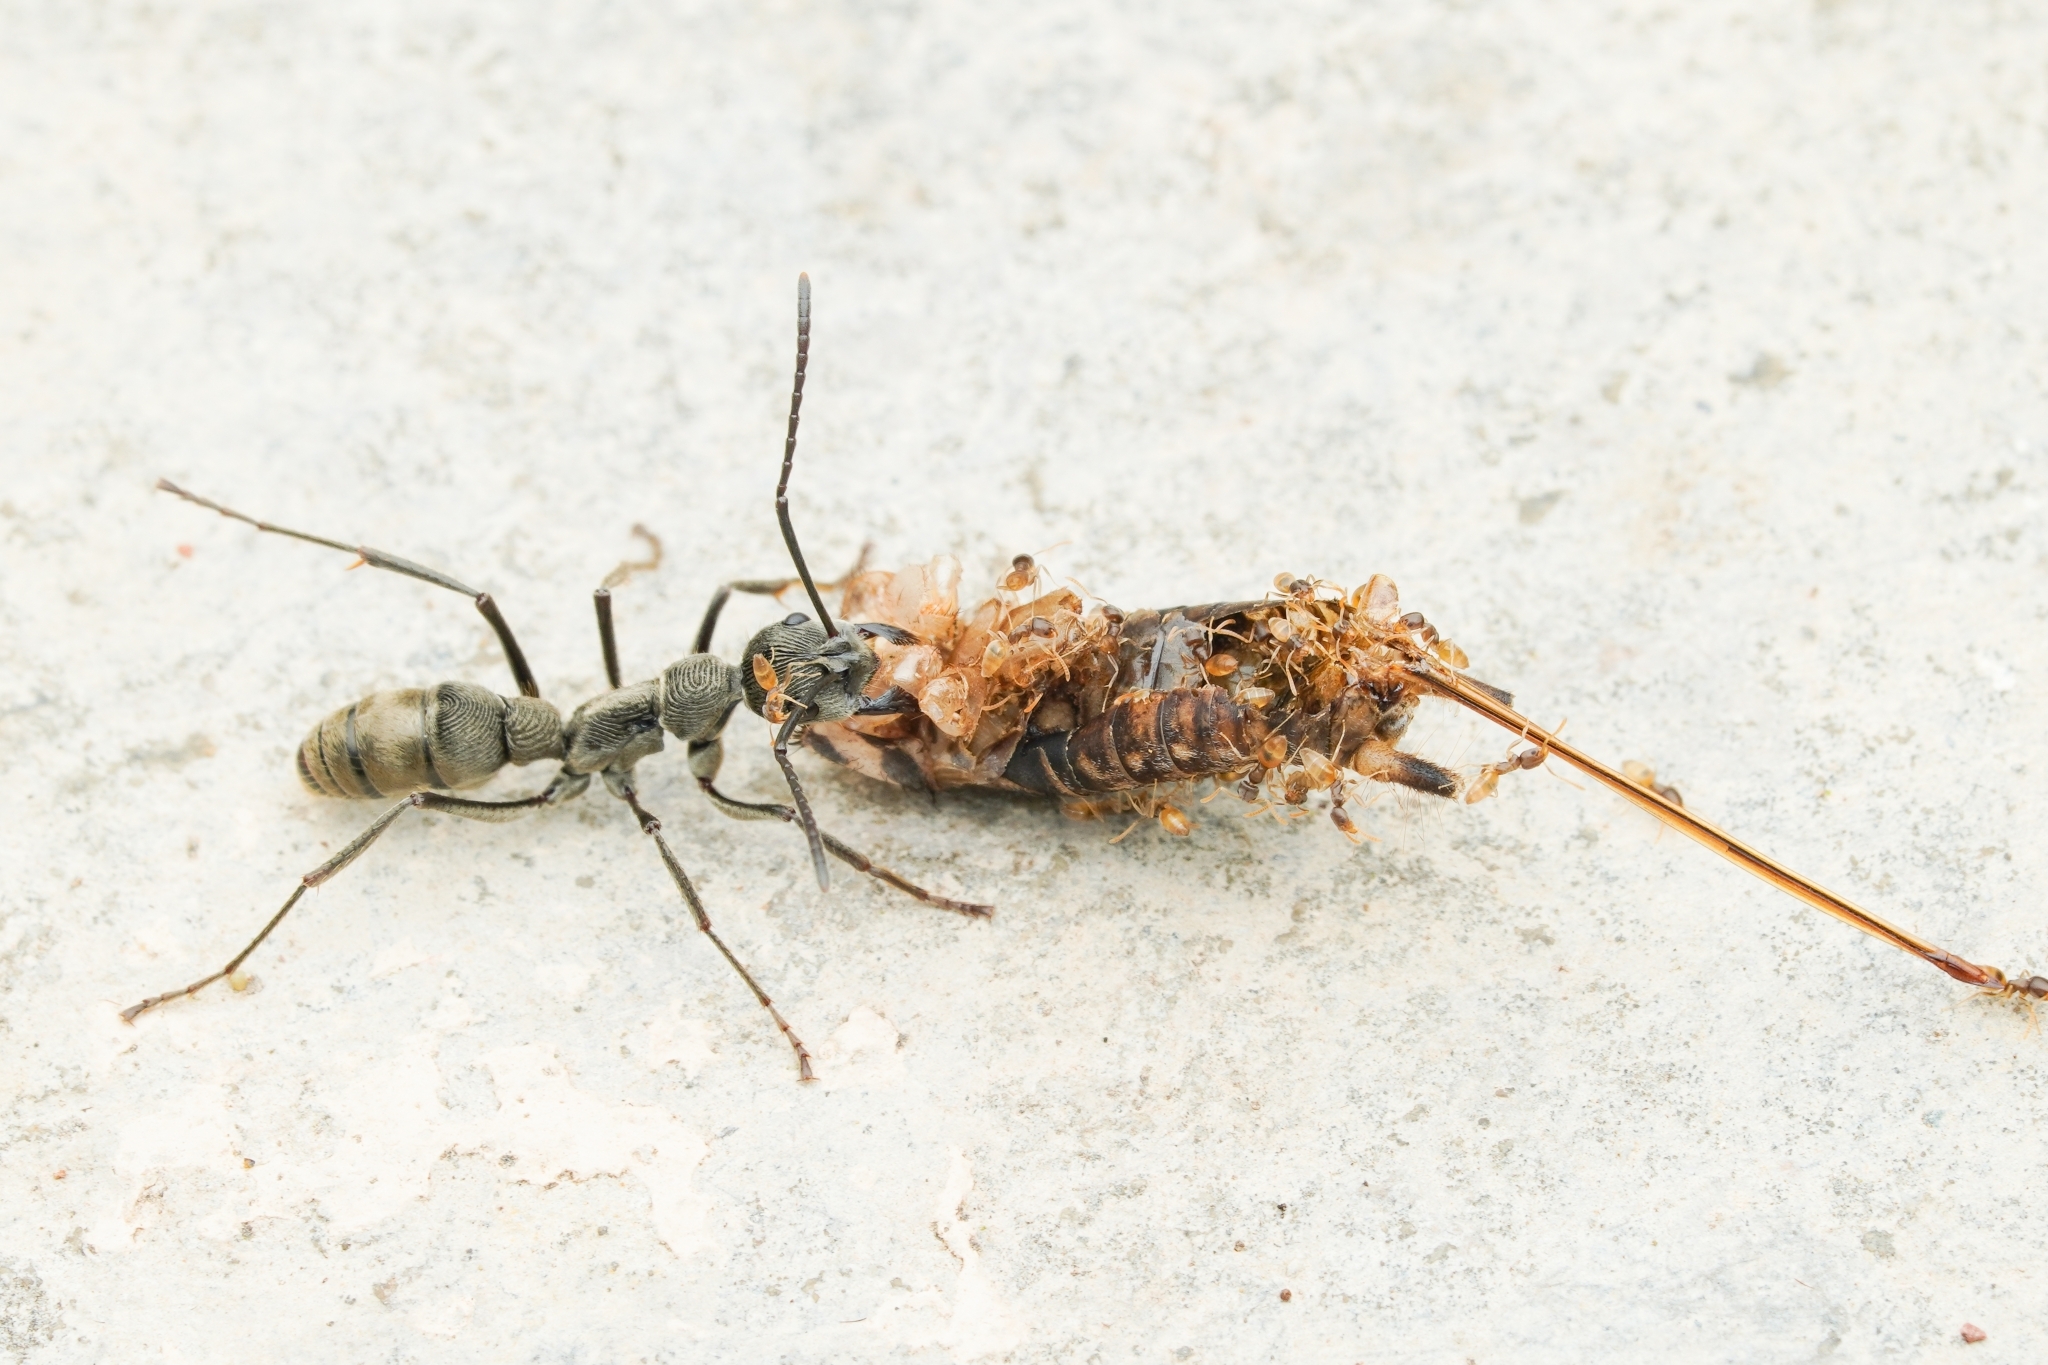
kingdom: Animalia
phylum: Arthropoda
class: Insecta
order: Hymenoptera
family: Formicidae
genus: Tapinoma
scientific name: Tapinoma melanocephalum
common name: Ghost ant
